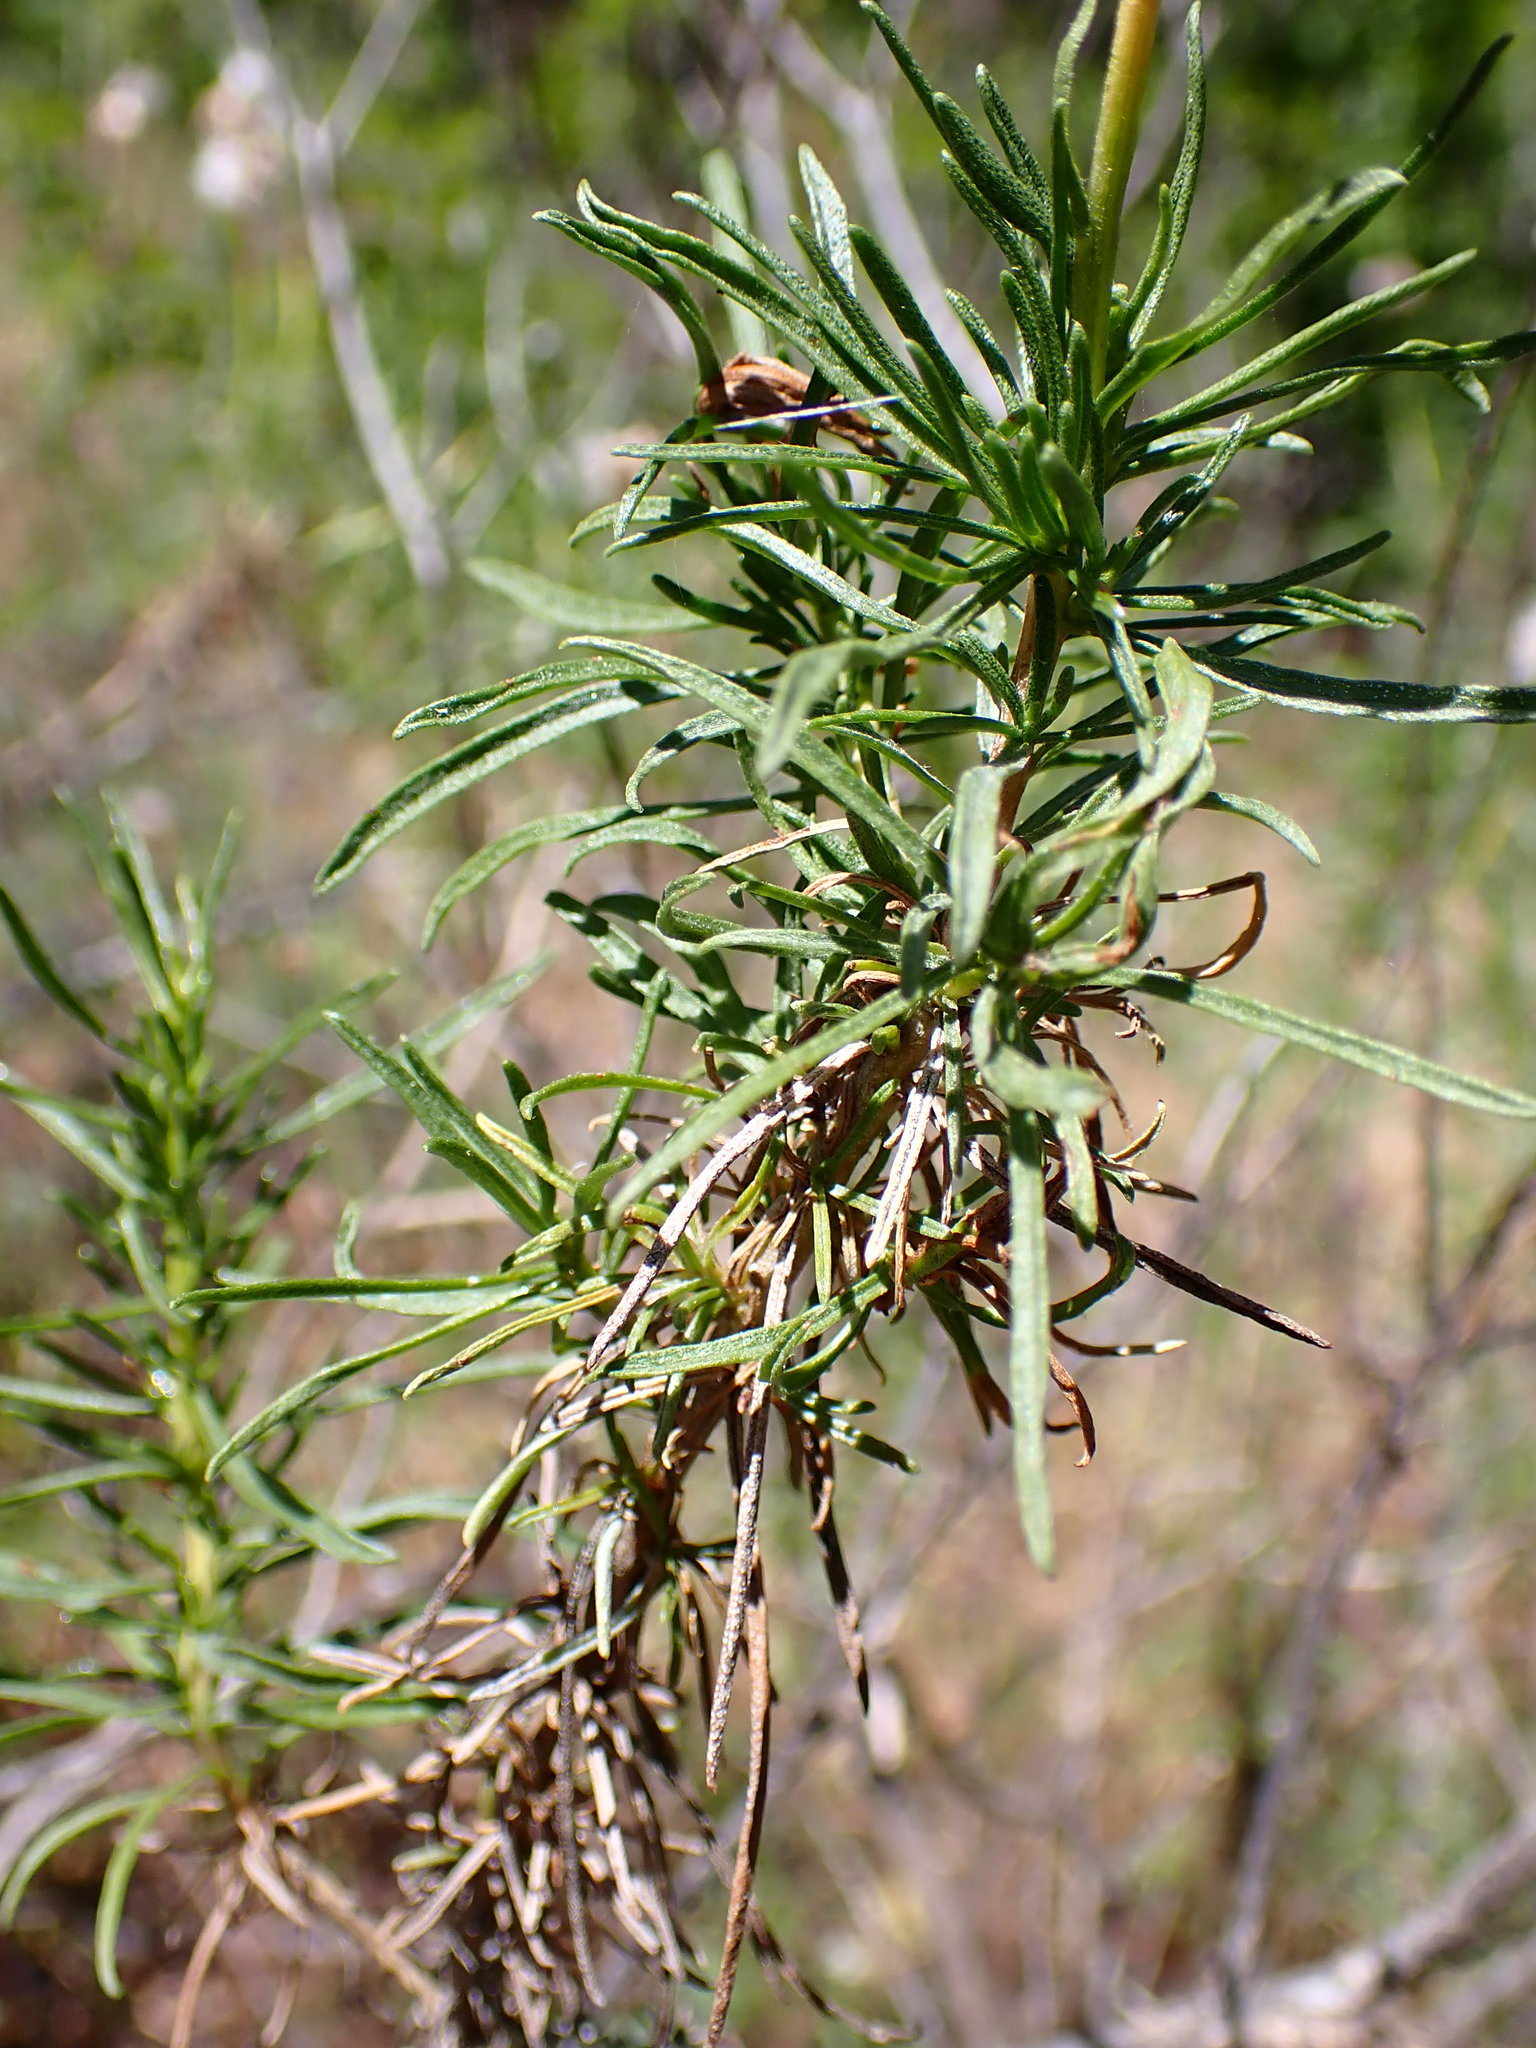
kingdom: Plantae
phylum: Tracheophyta
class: Magnoliopsida
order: Asterales
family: Asteraceae
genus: Ericameria
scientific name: Ericameria linearifolia
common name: Interior goldenbush
